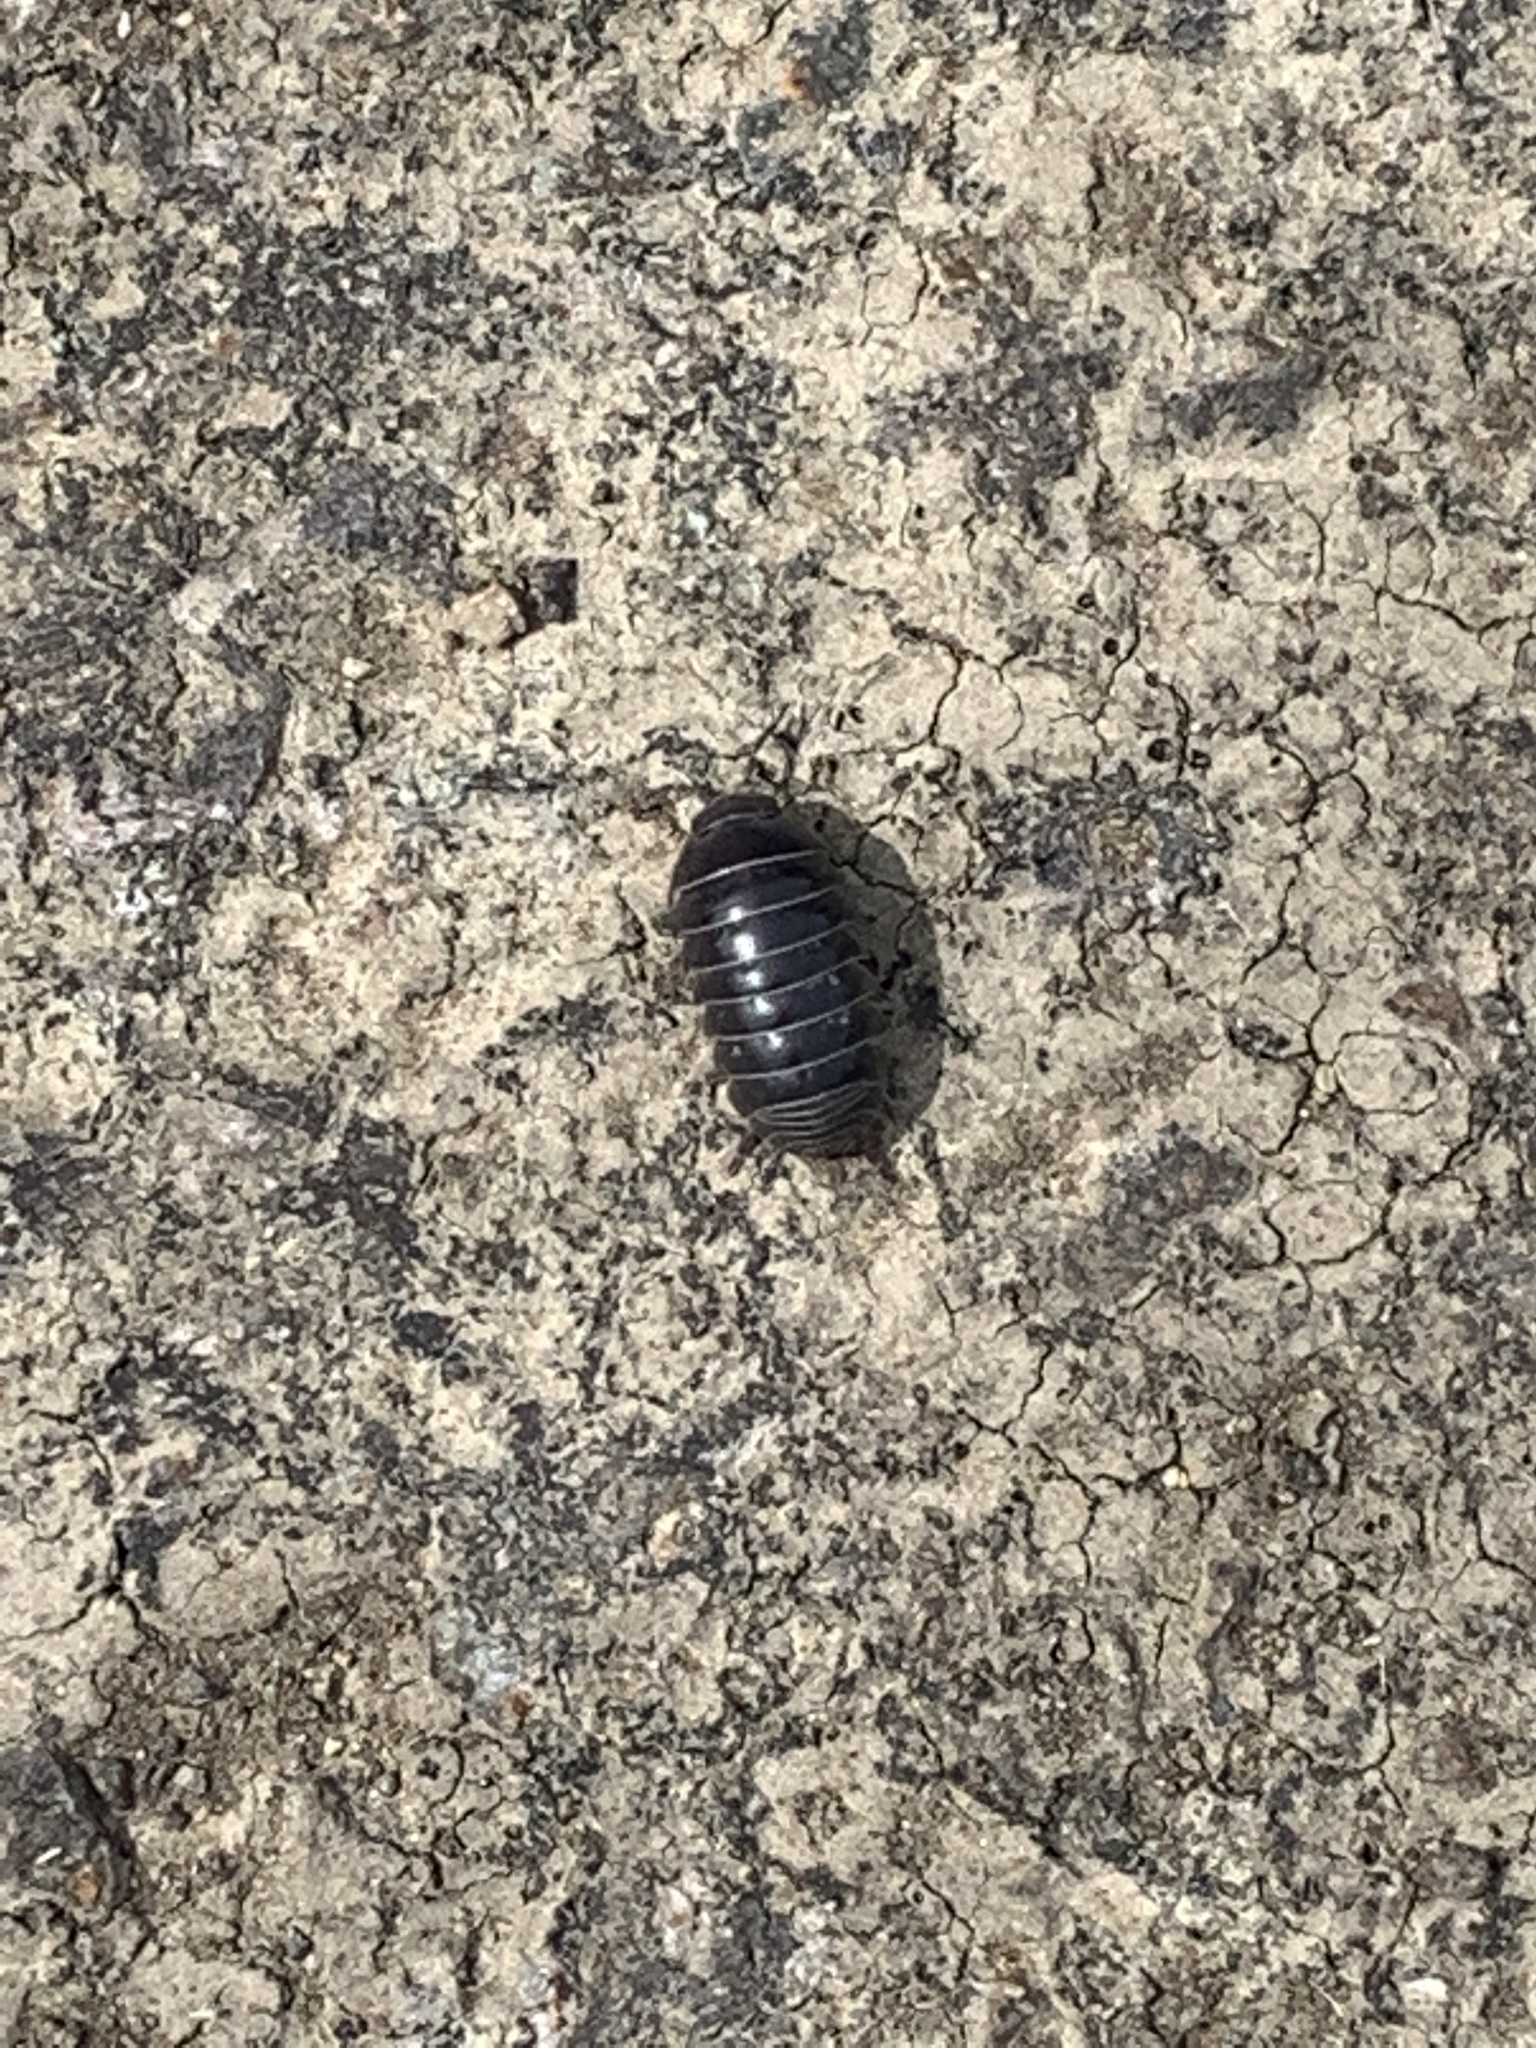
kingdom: Animalia
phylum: Arthropoda
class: Malacostraca
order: Isopoda
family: Armadillidiidae
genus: Armadillidium
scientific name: Armadillidium vulgare
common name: Common pill woodlouse
